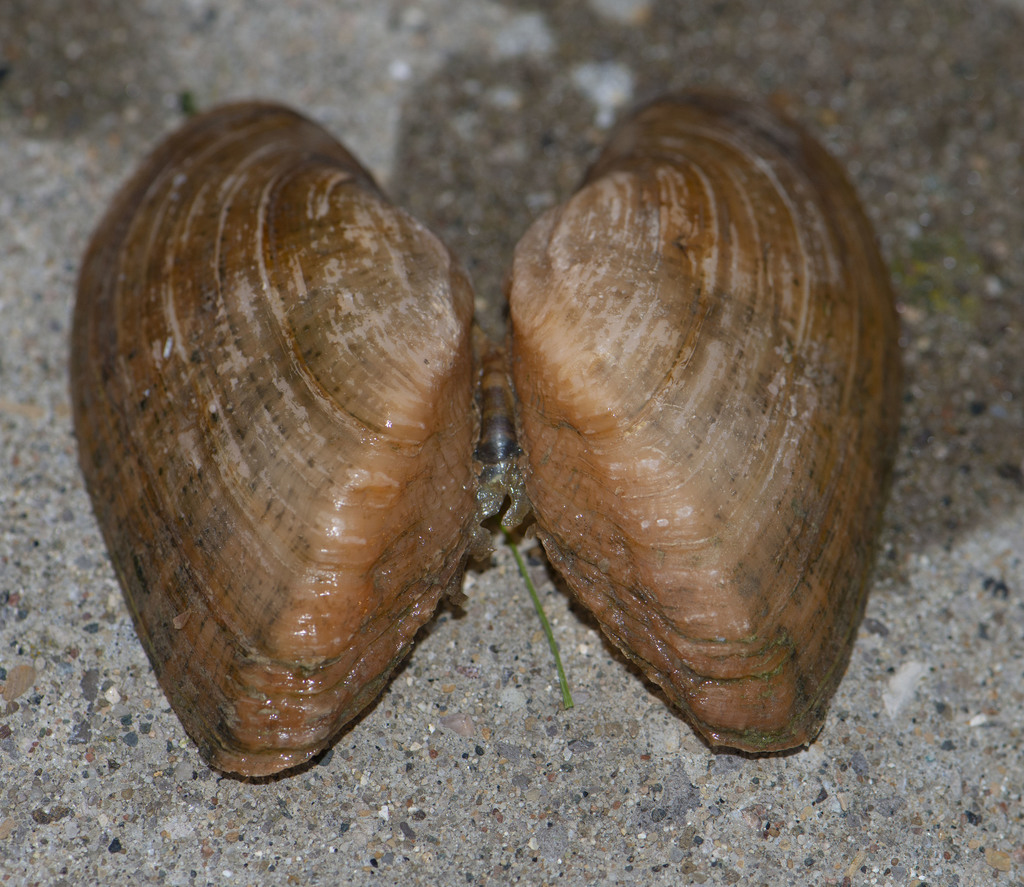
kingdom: Animalia
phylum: Mollusca
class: Bivalvia
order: Unionida
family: Unionidae
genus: Alasmidonta
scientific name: Alasmidonta marginata
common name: Elktoe
